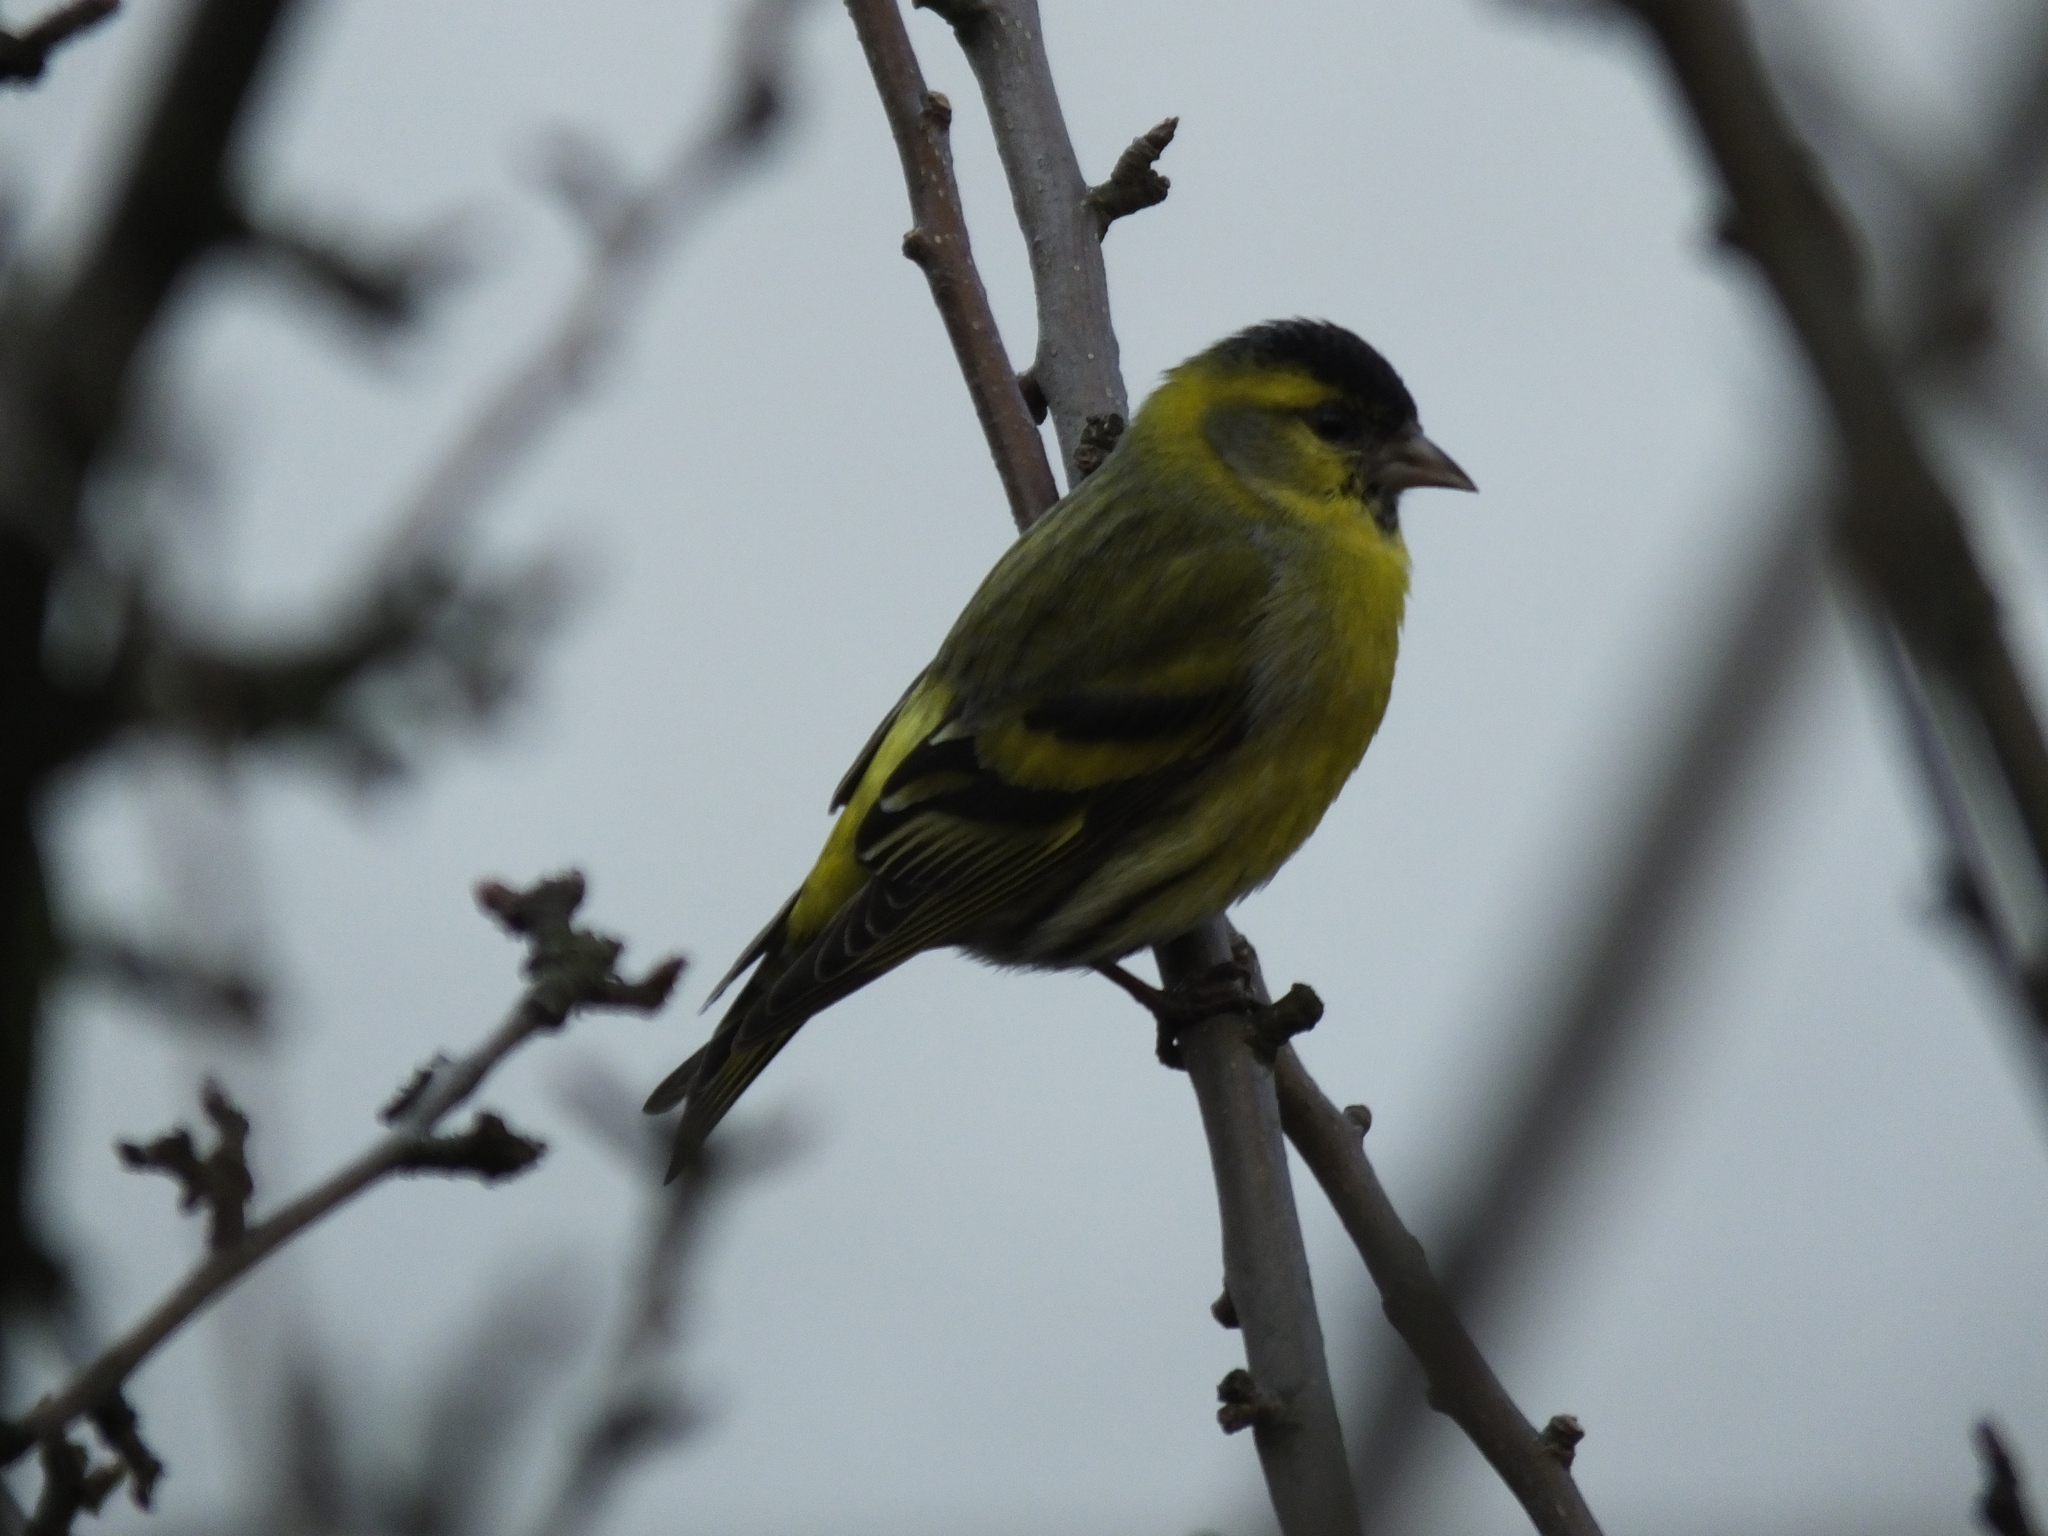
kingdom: Animalia
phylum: Chordata
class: Aves
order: Passeriformes
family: Fringillidae
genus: Spinus
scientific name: Spinus spinus
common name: Eurasian siskin
